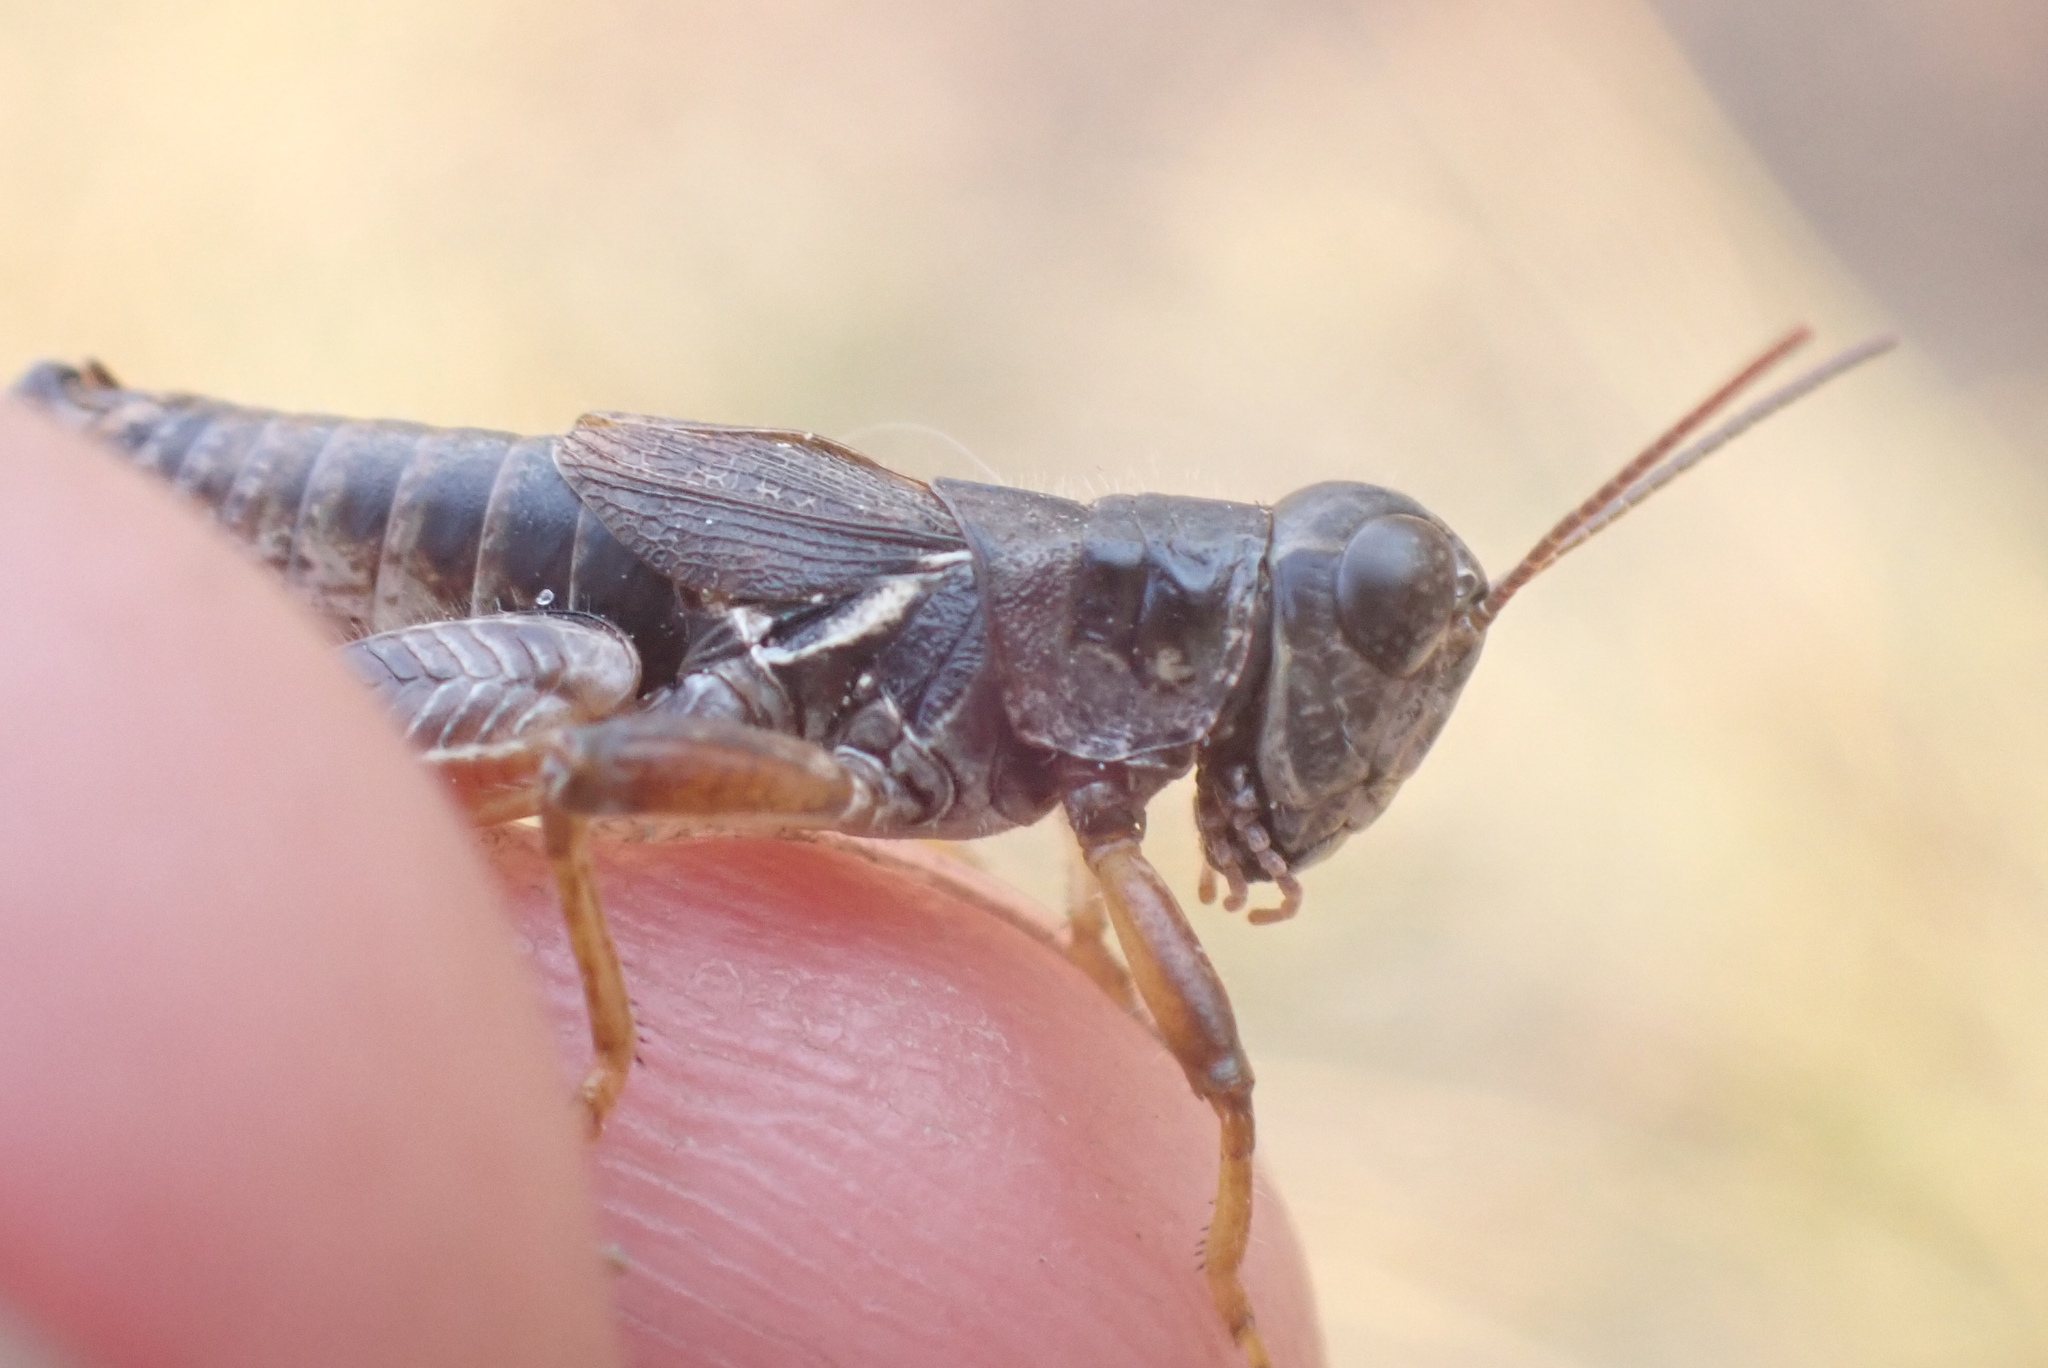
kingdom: Animalia
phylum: Arthropoda
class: Insecta
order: Orthoptera
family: Acrididae
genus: Melanoplus
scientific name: Melanoplus molothrus
